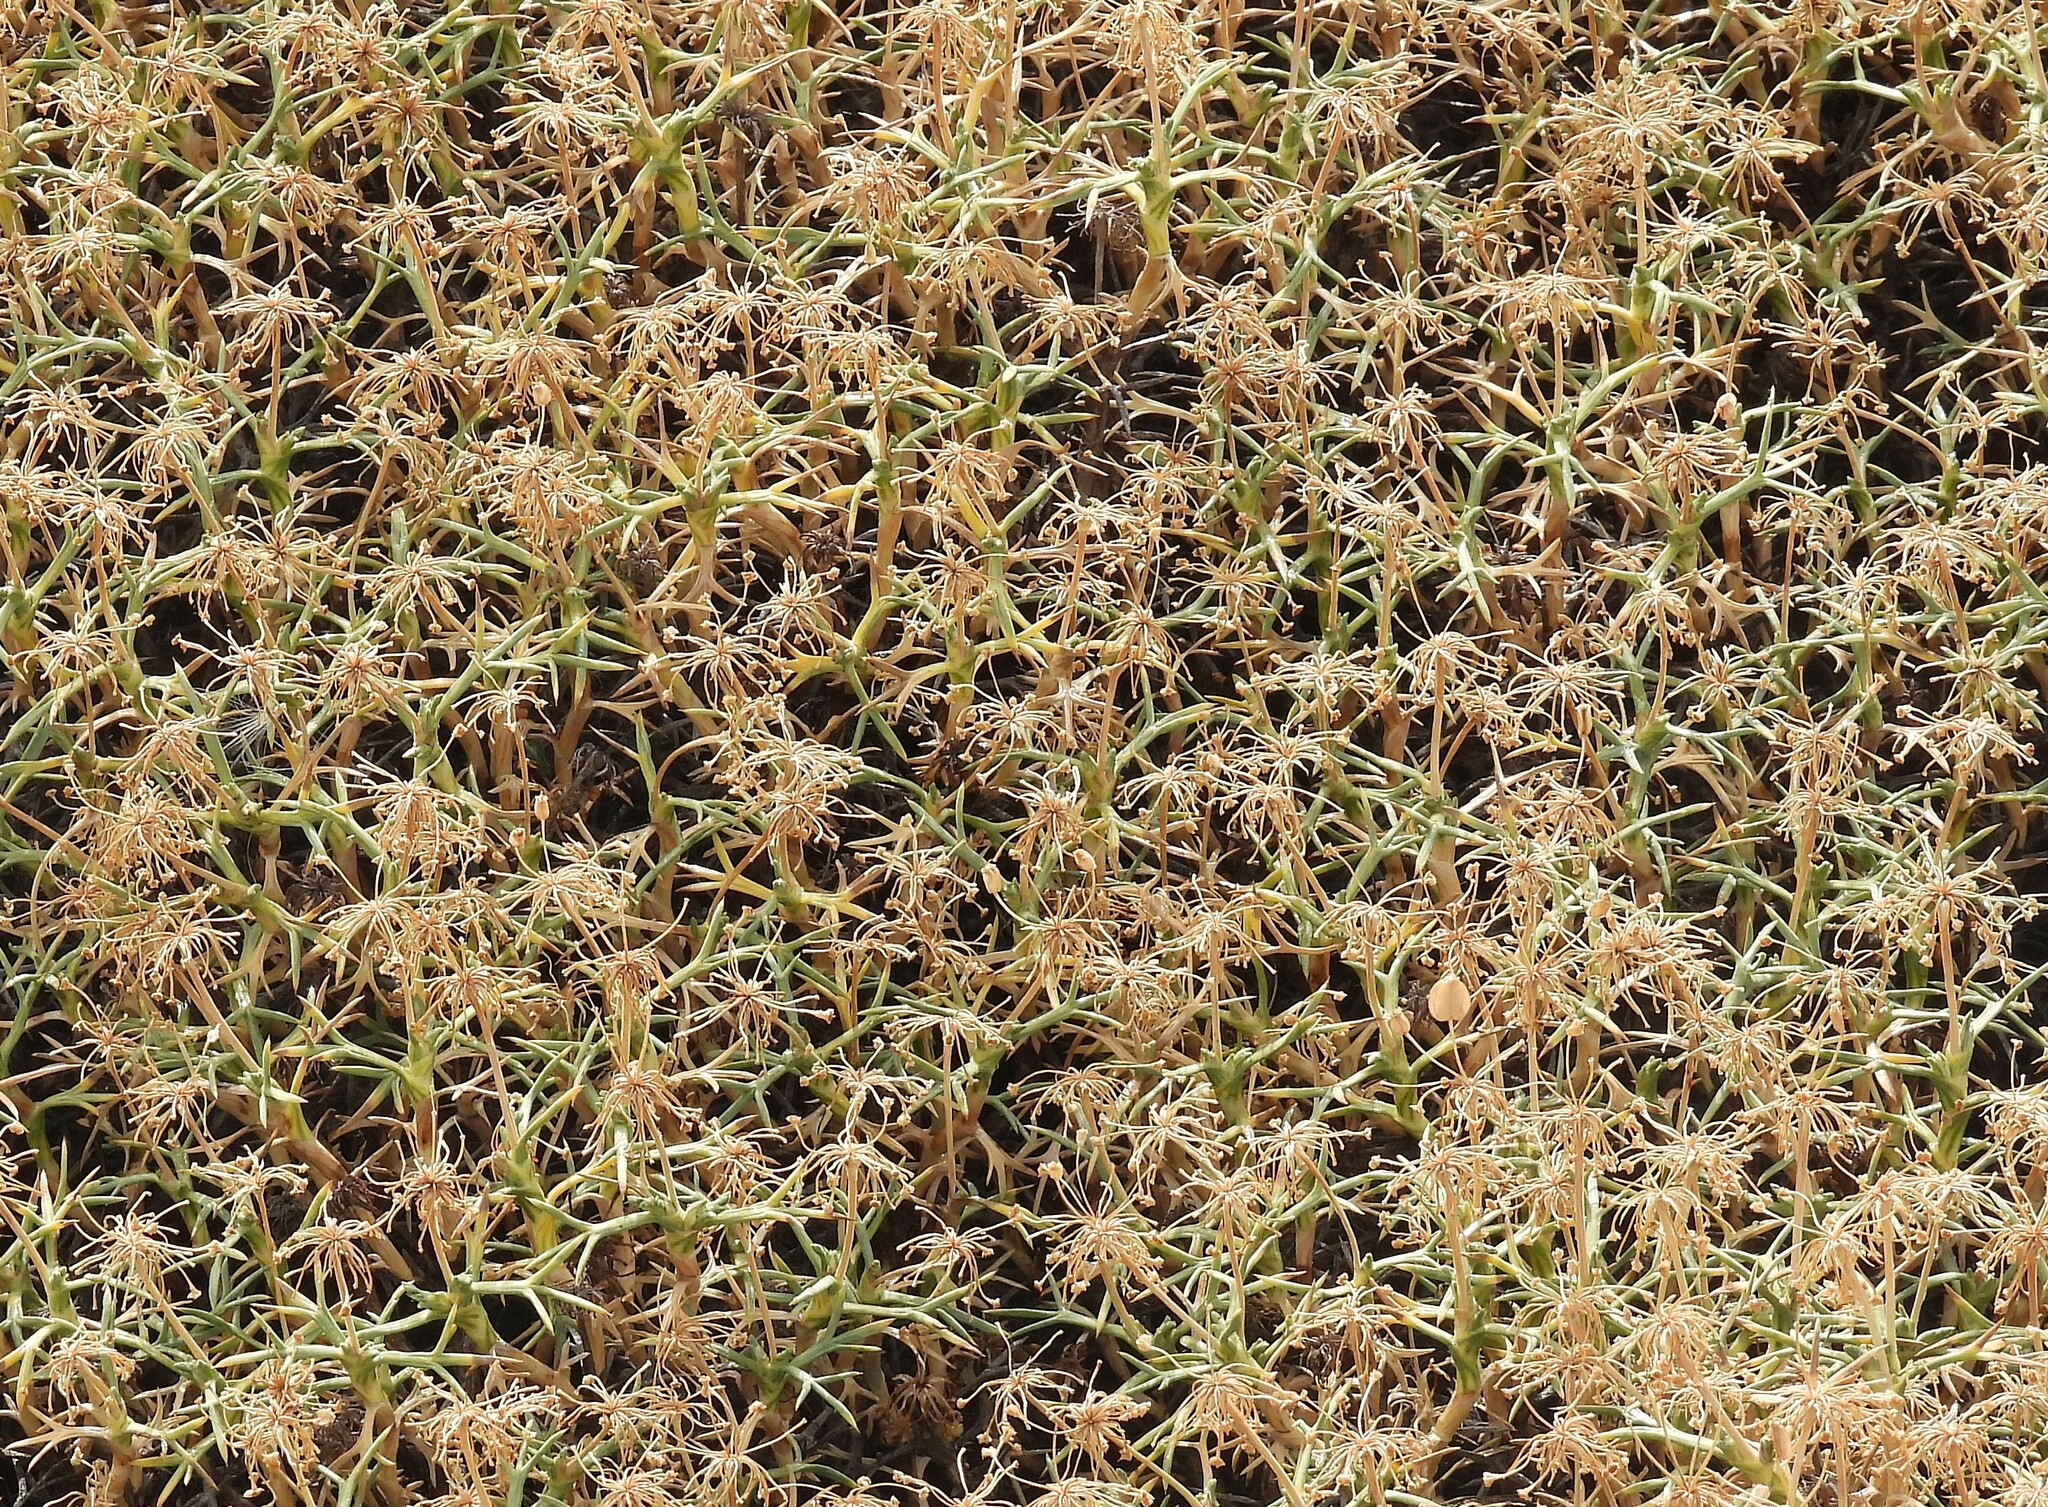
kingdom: Plantae
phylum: Tracheophyta
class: Magnoliopsida
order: Apiales
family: Apiaceae
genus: Azorella
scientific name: Azorella prolifera
